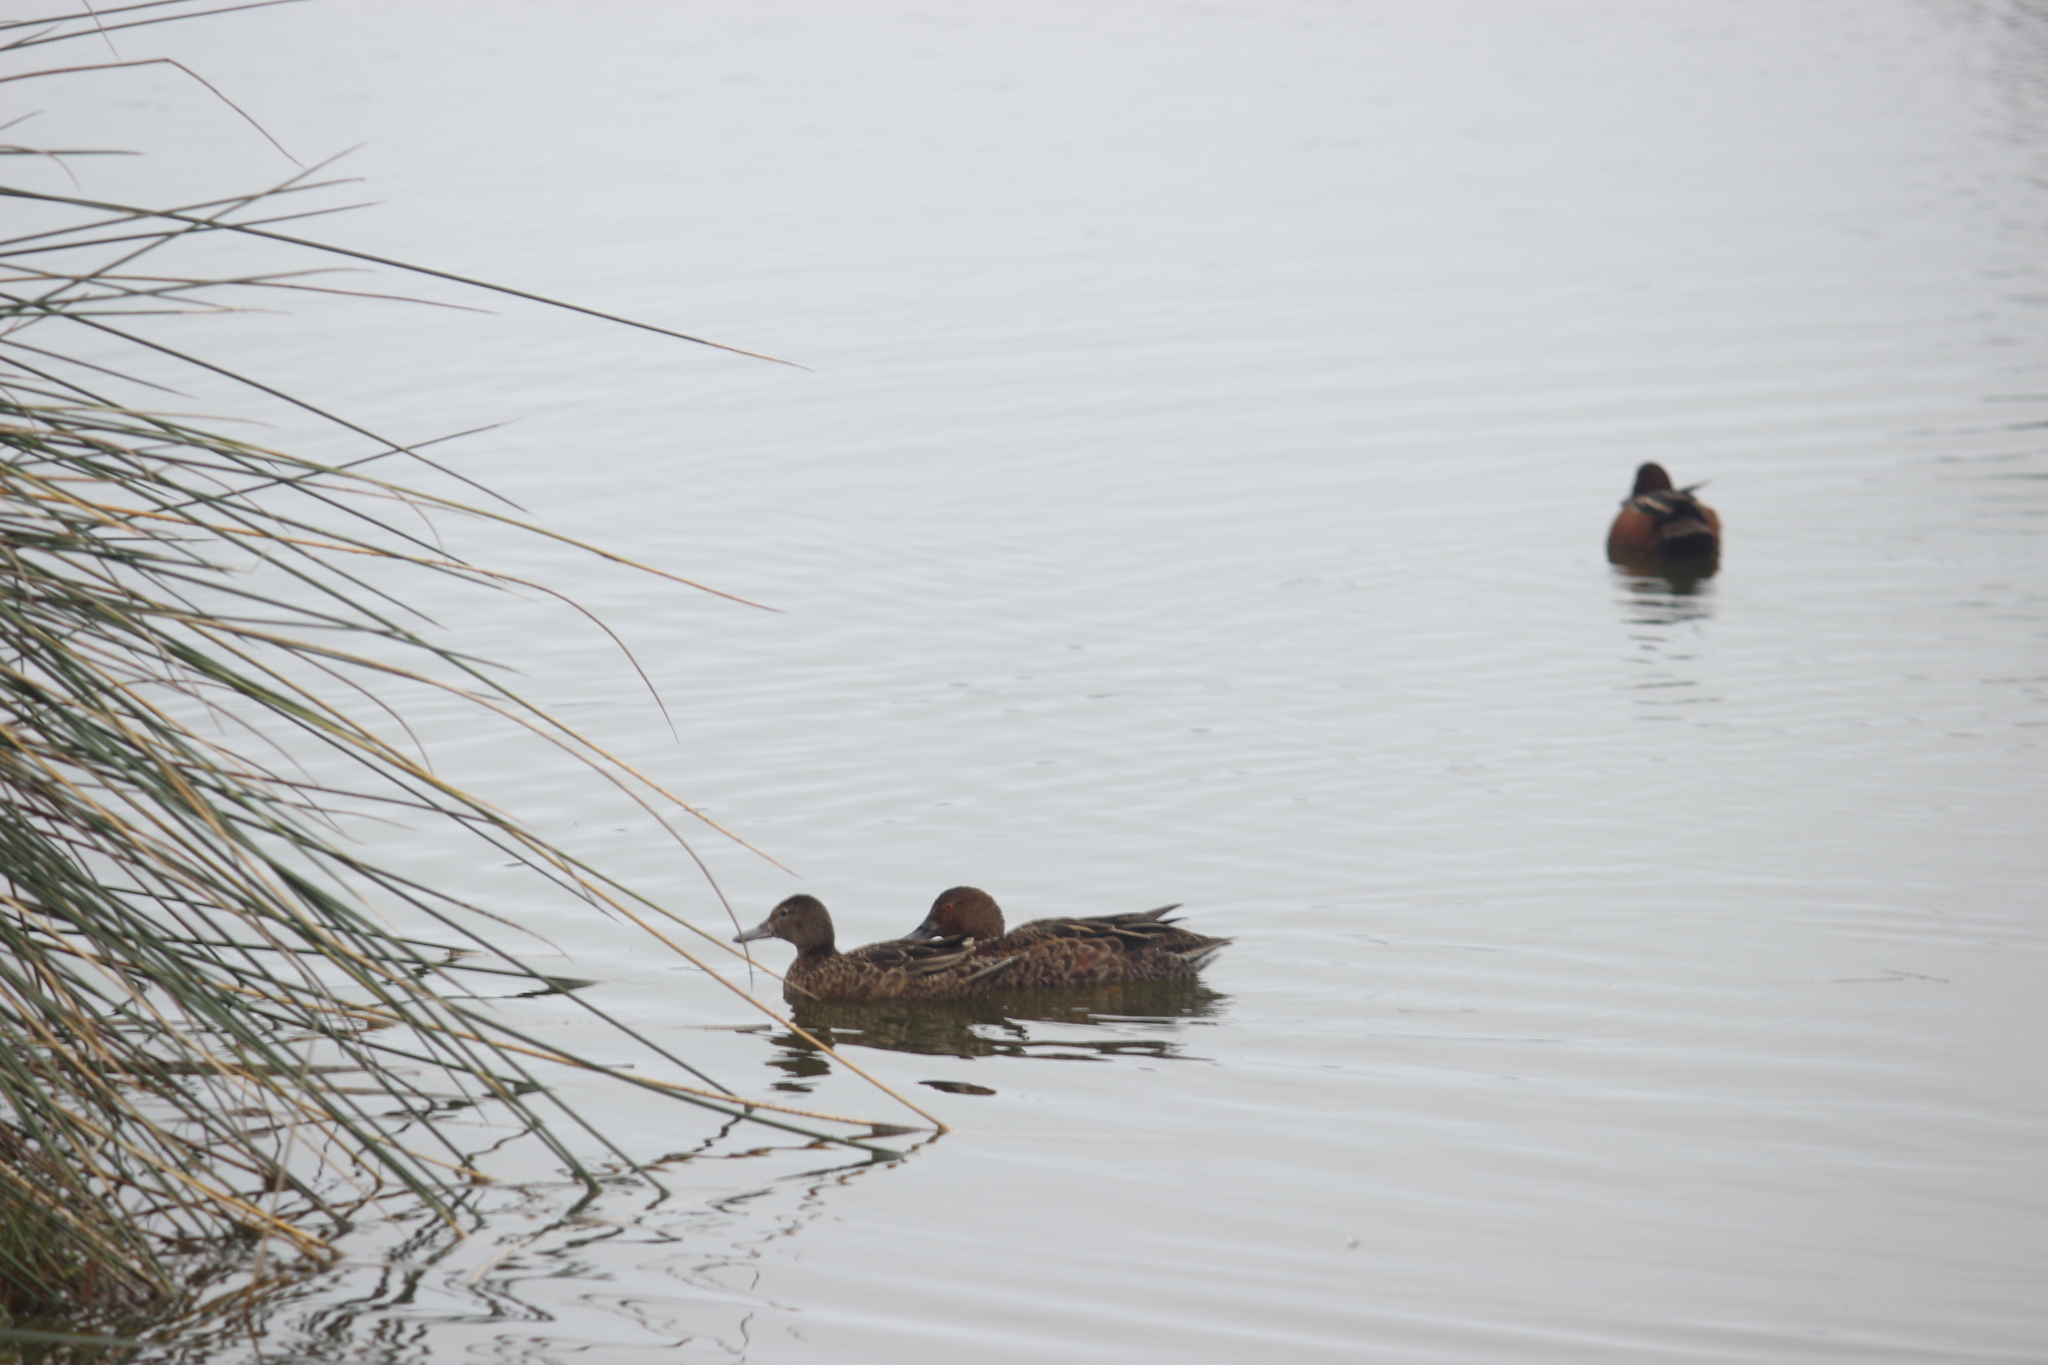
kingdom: Animalia
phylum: Chordata
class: Aves
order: Anseriformes
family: Anatidae
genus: Spatula
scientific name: Spatula cyanoptera
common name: Cinnamon teal
